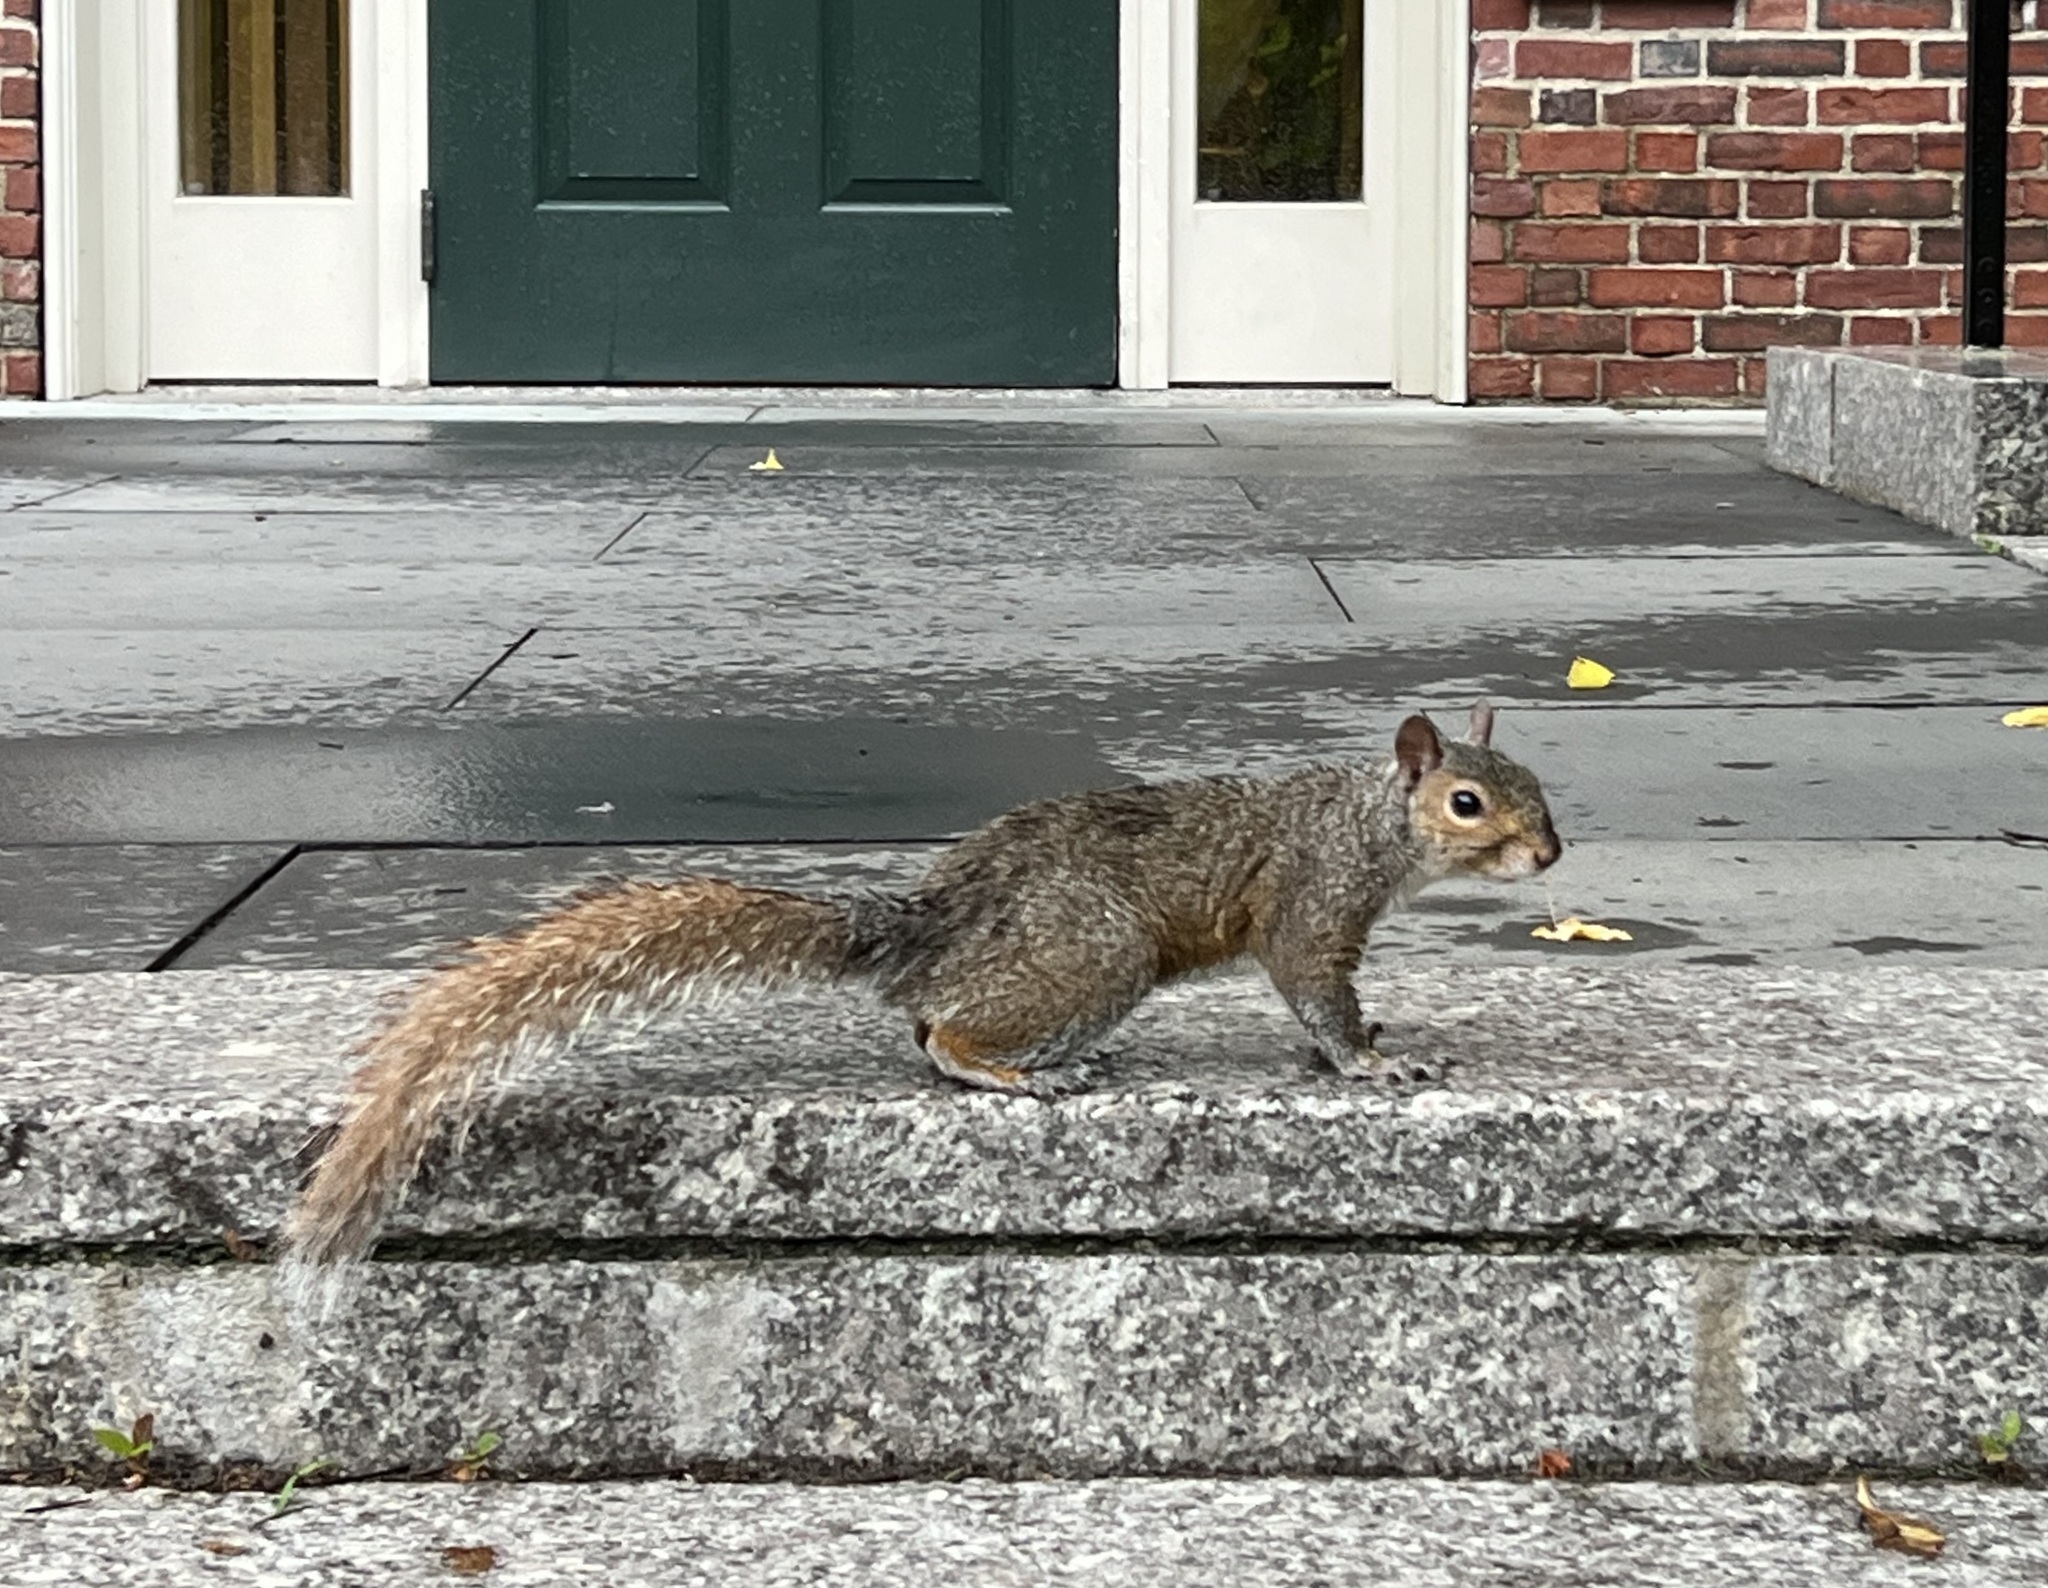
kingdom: Animalia
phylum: Chordata
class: Mammalia
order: Rodentia
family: Sciuridae
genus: Sciurus
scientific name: Sciurus carolinensis
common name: Eastern gray squirrel
